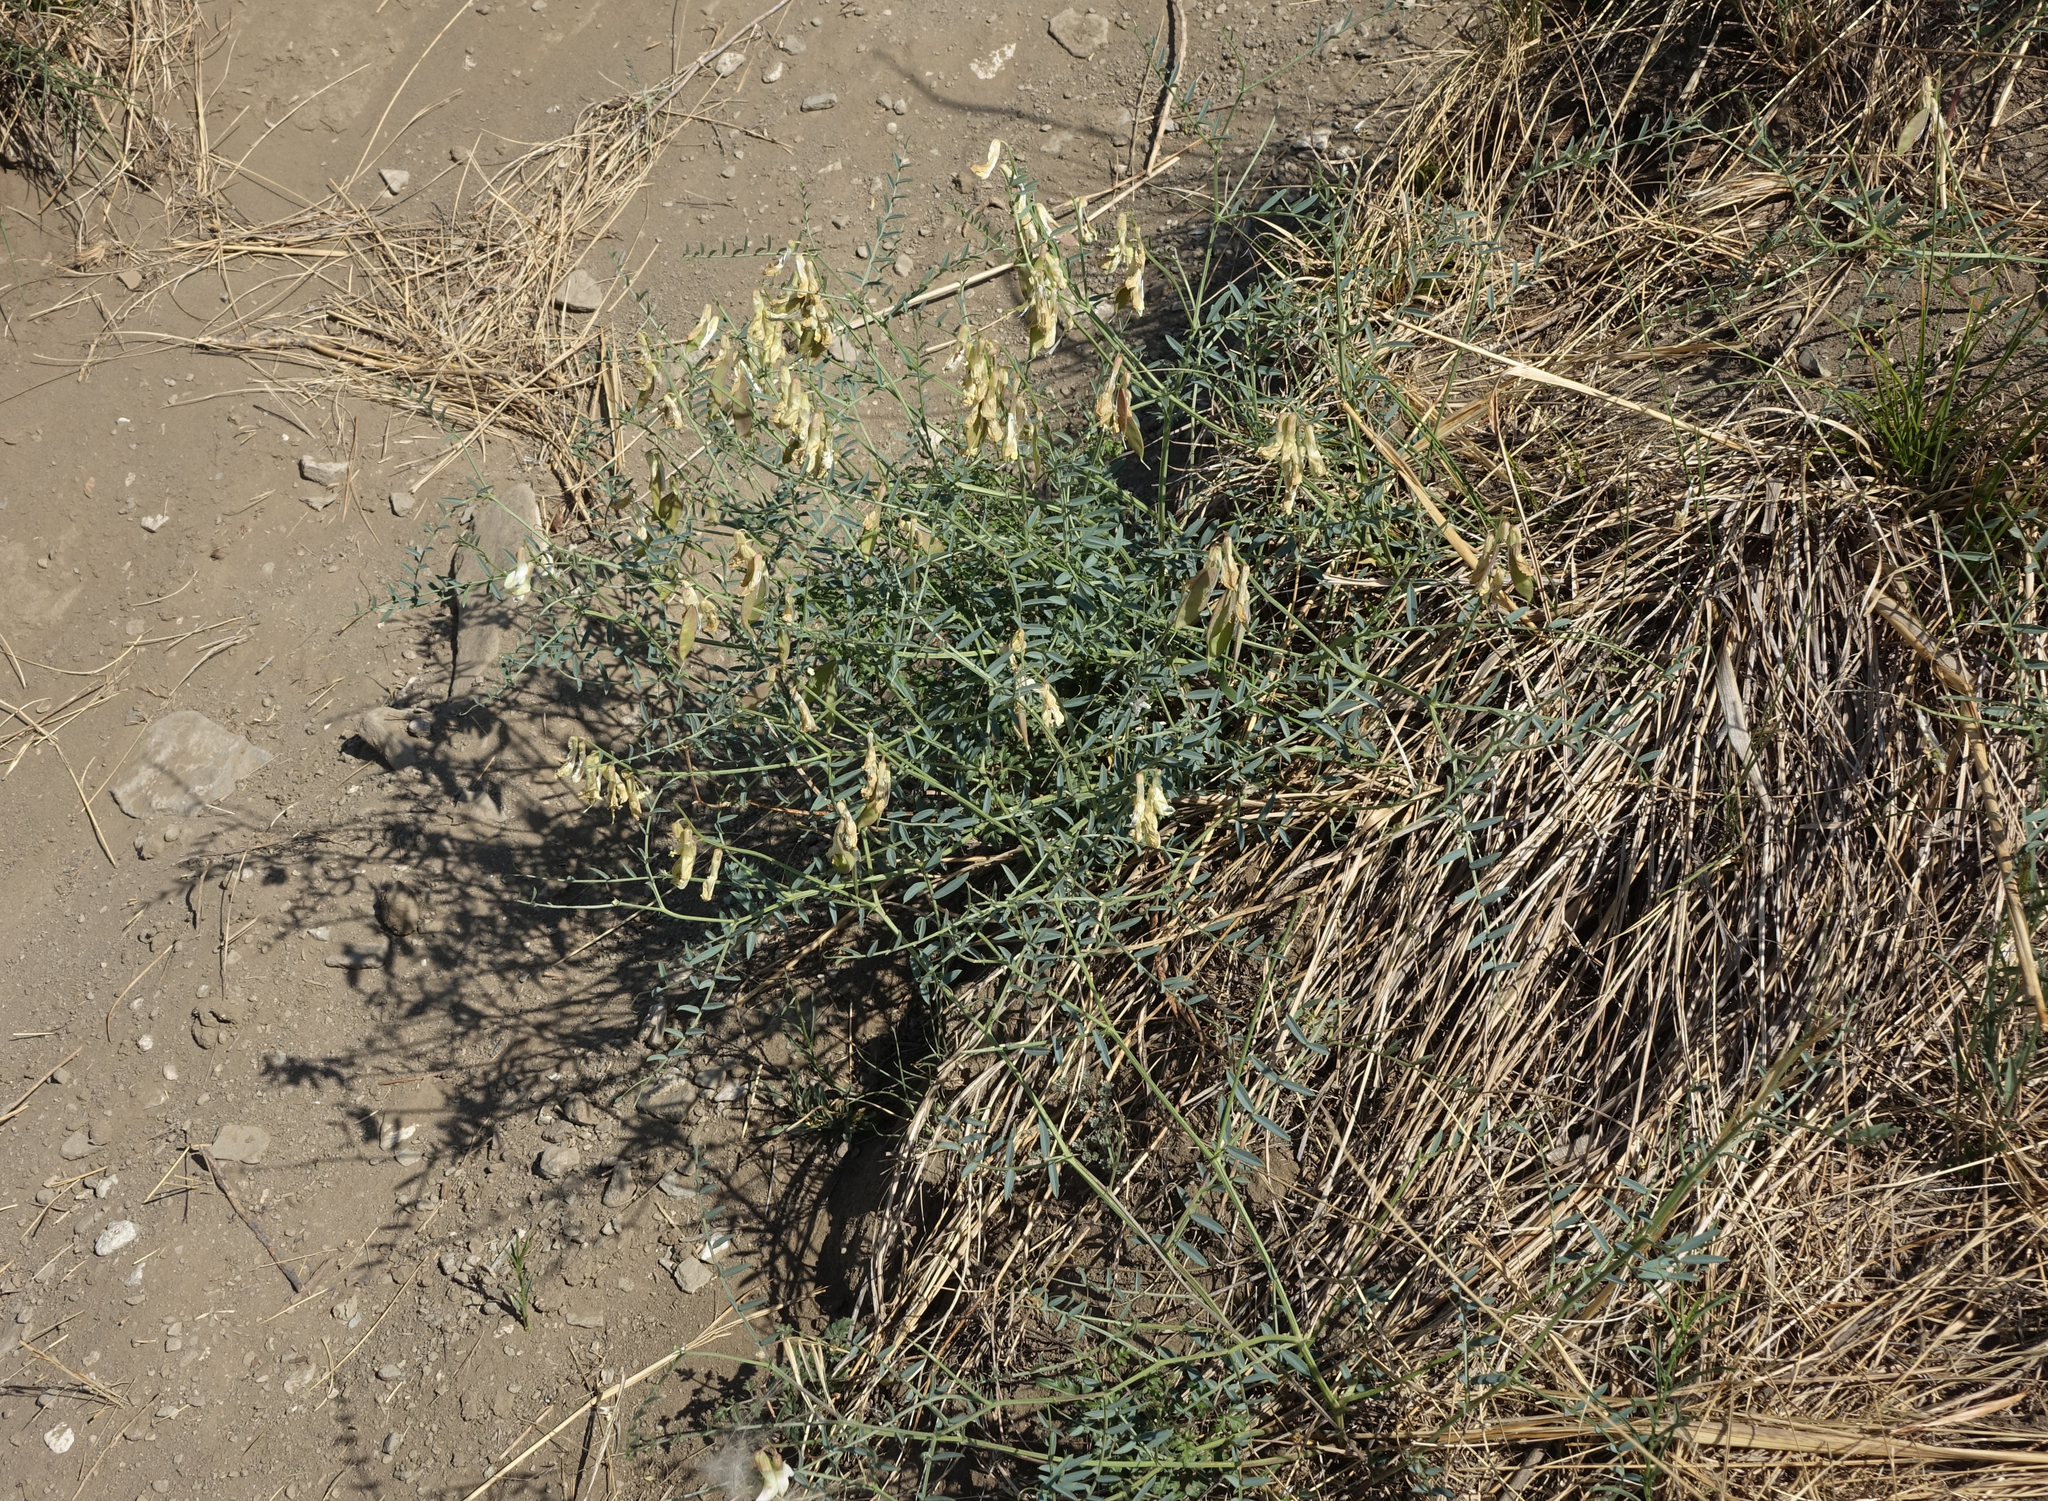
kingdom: Plantae
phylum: Tracheophyta
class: Magnoliopsida
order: Fabales
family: Fabaceae
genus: Vicia
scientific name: Vicia costata
